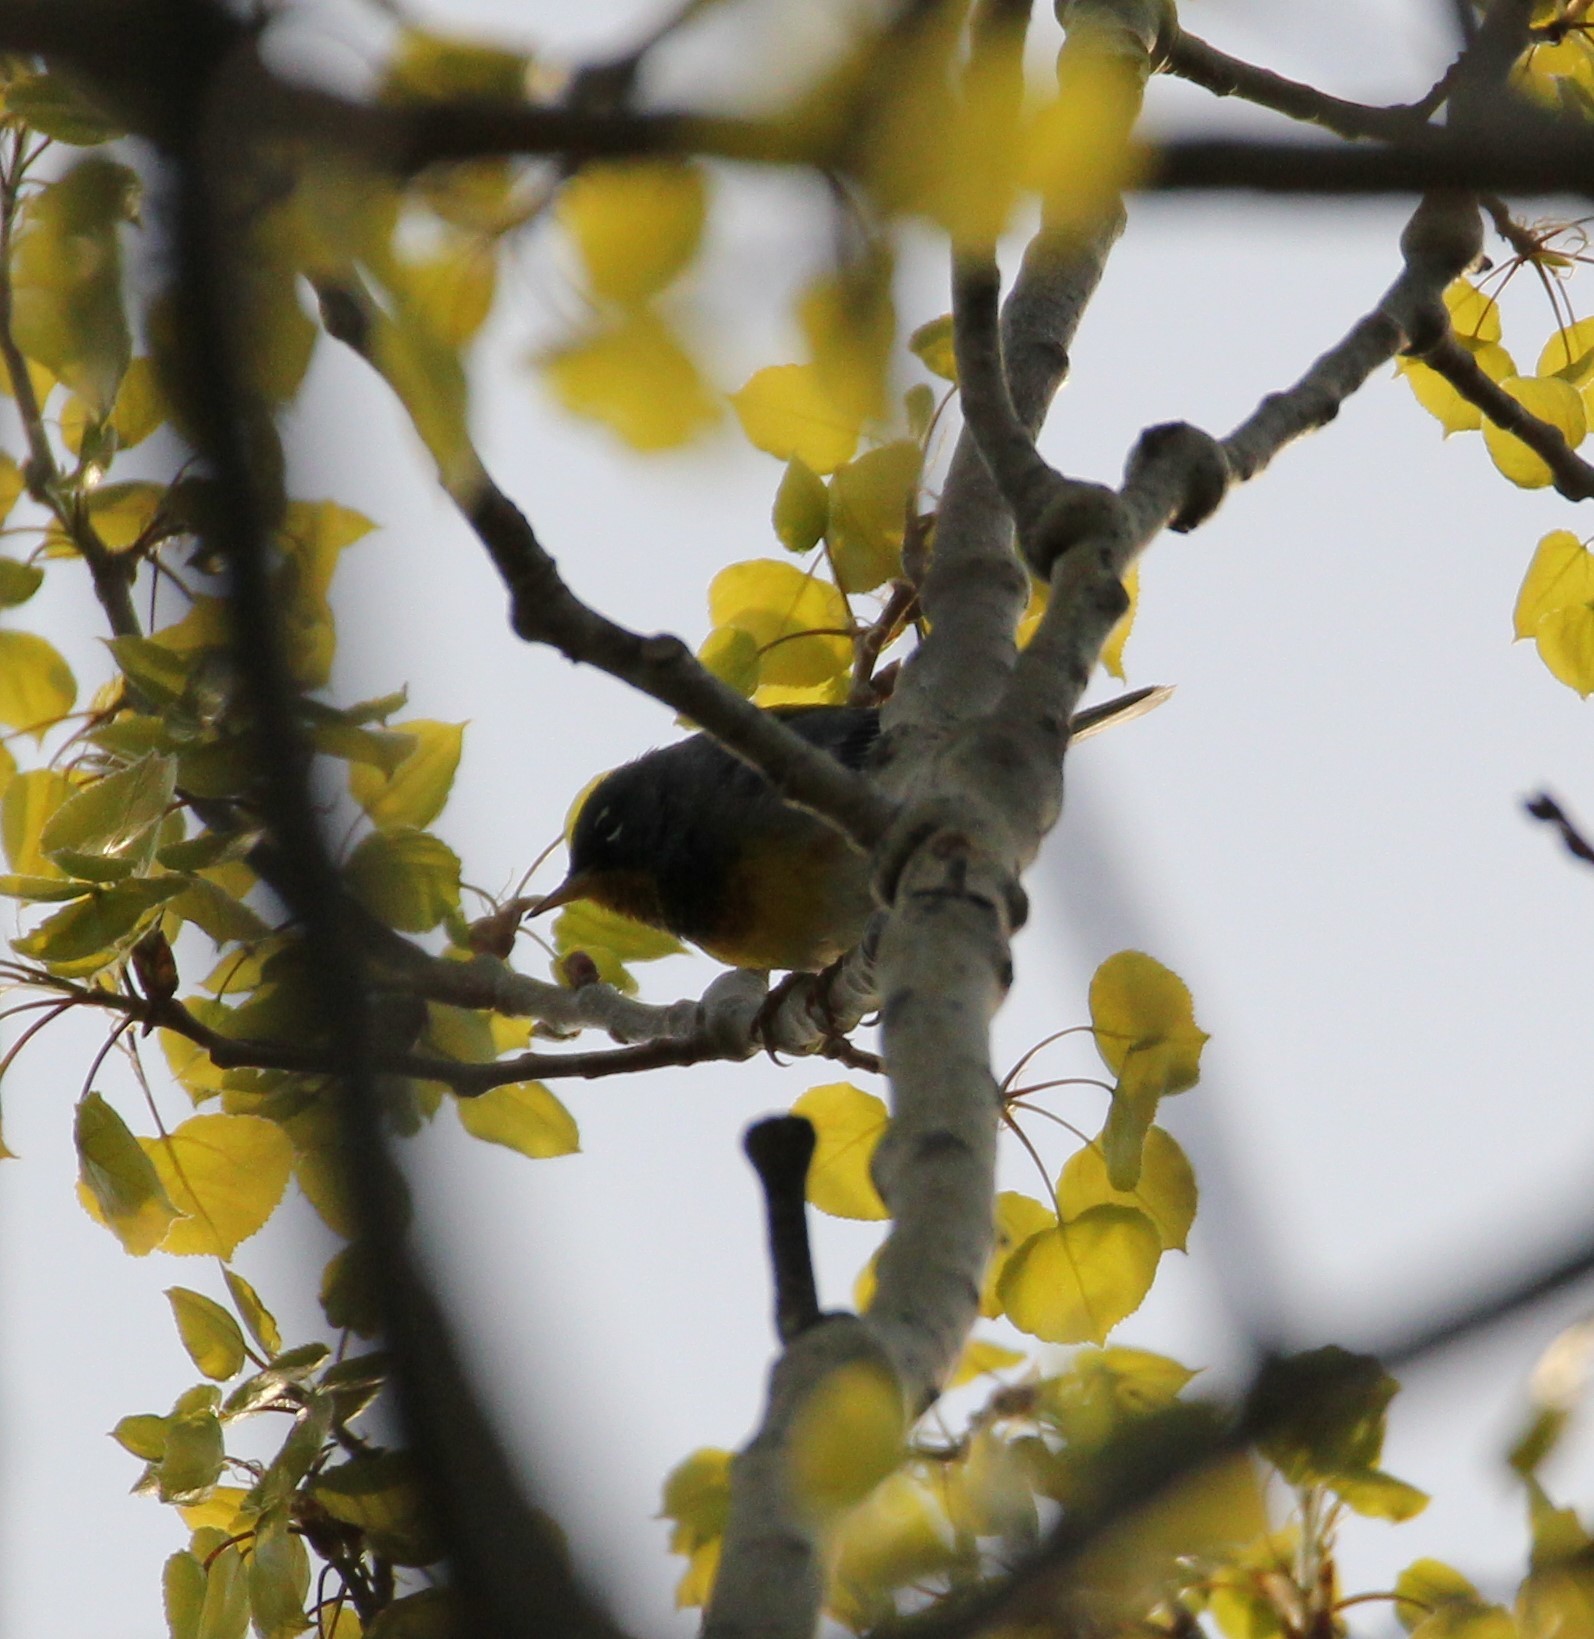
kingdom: Animalia
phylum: Chordata
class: Aves
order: Passeriformes
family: Parulidae
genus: Setophaga
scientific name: Setophaga americana
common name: Northern parula
